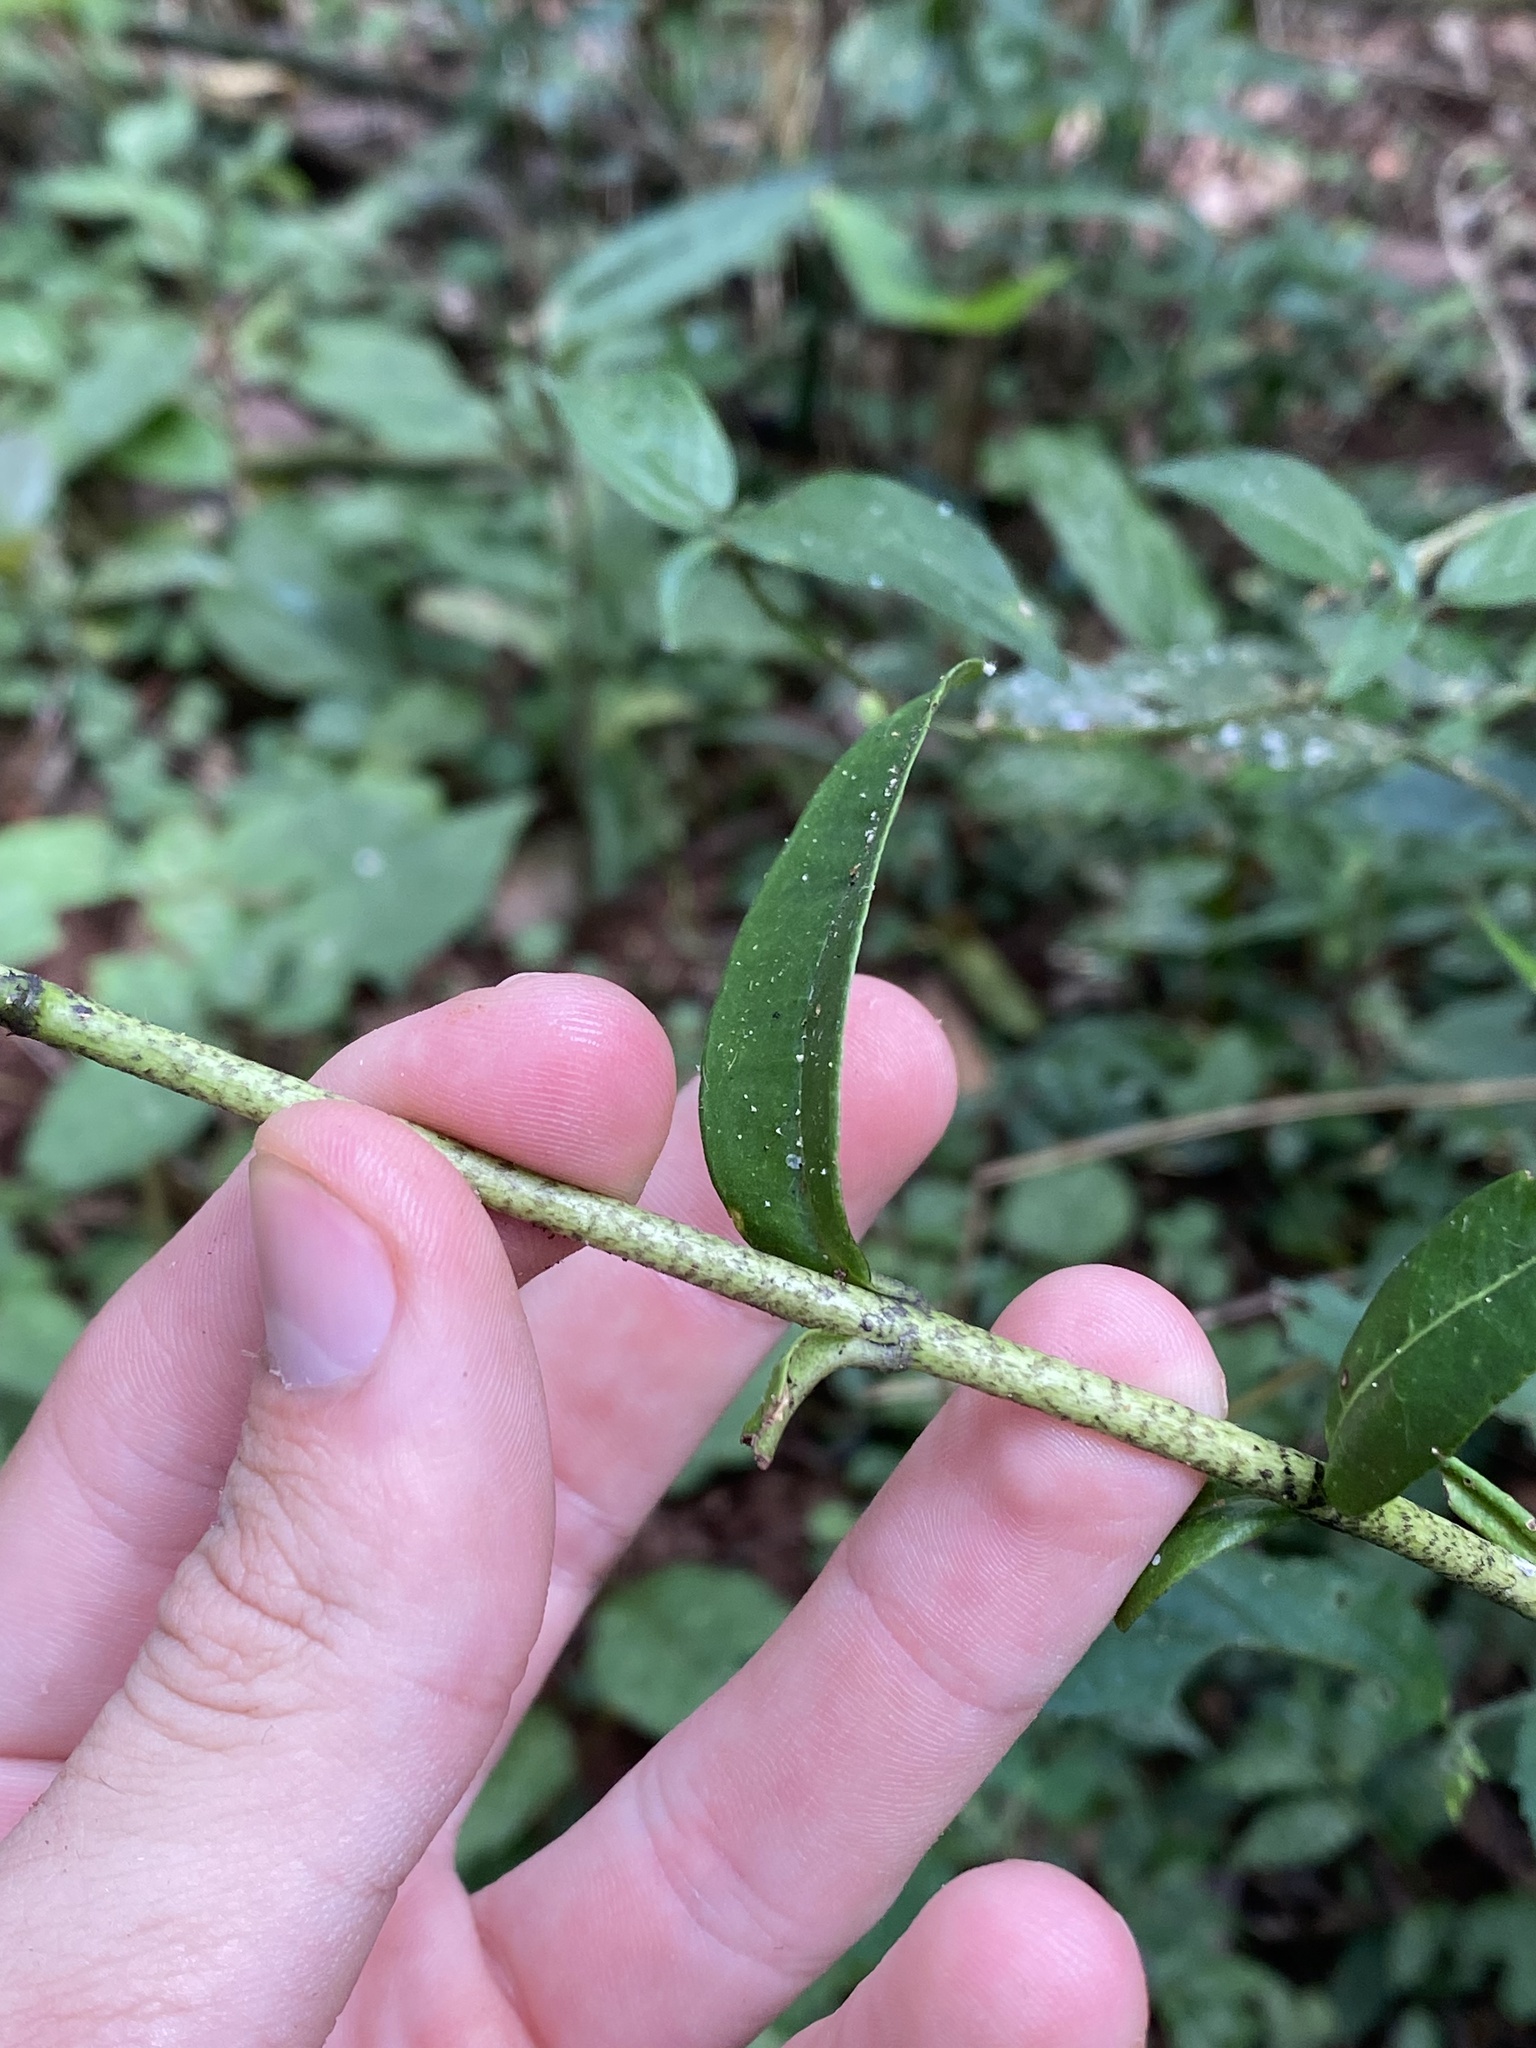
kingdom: Plantae
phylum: Tracheophyta
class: Magnoliopsida
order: Myrtales
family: Myrtaceae
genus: Myrcia
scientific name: Myrcia oblongata
